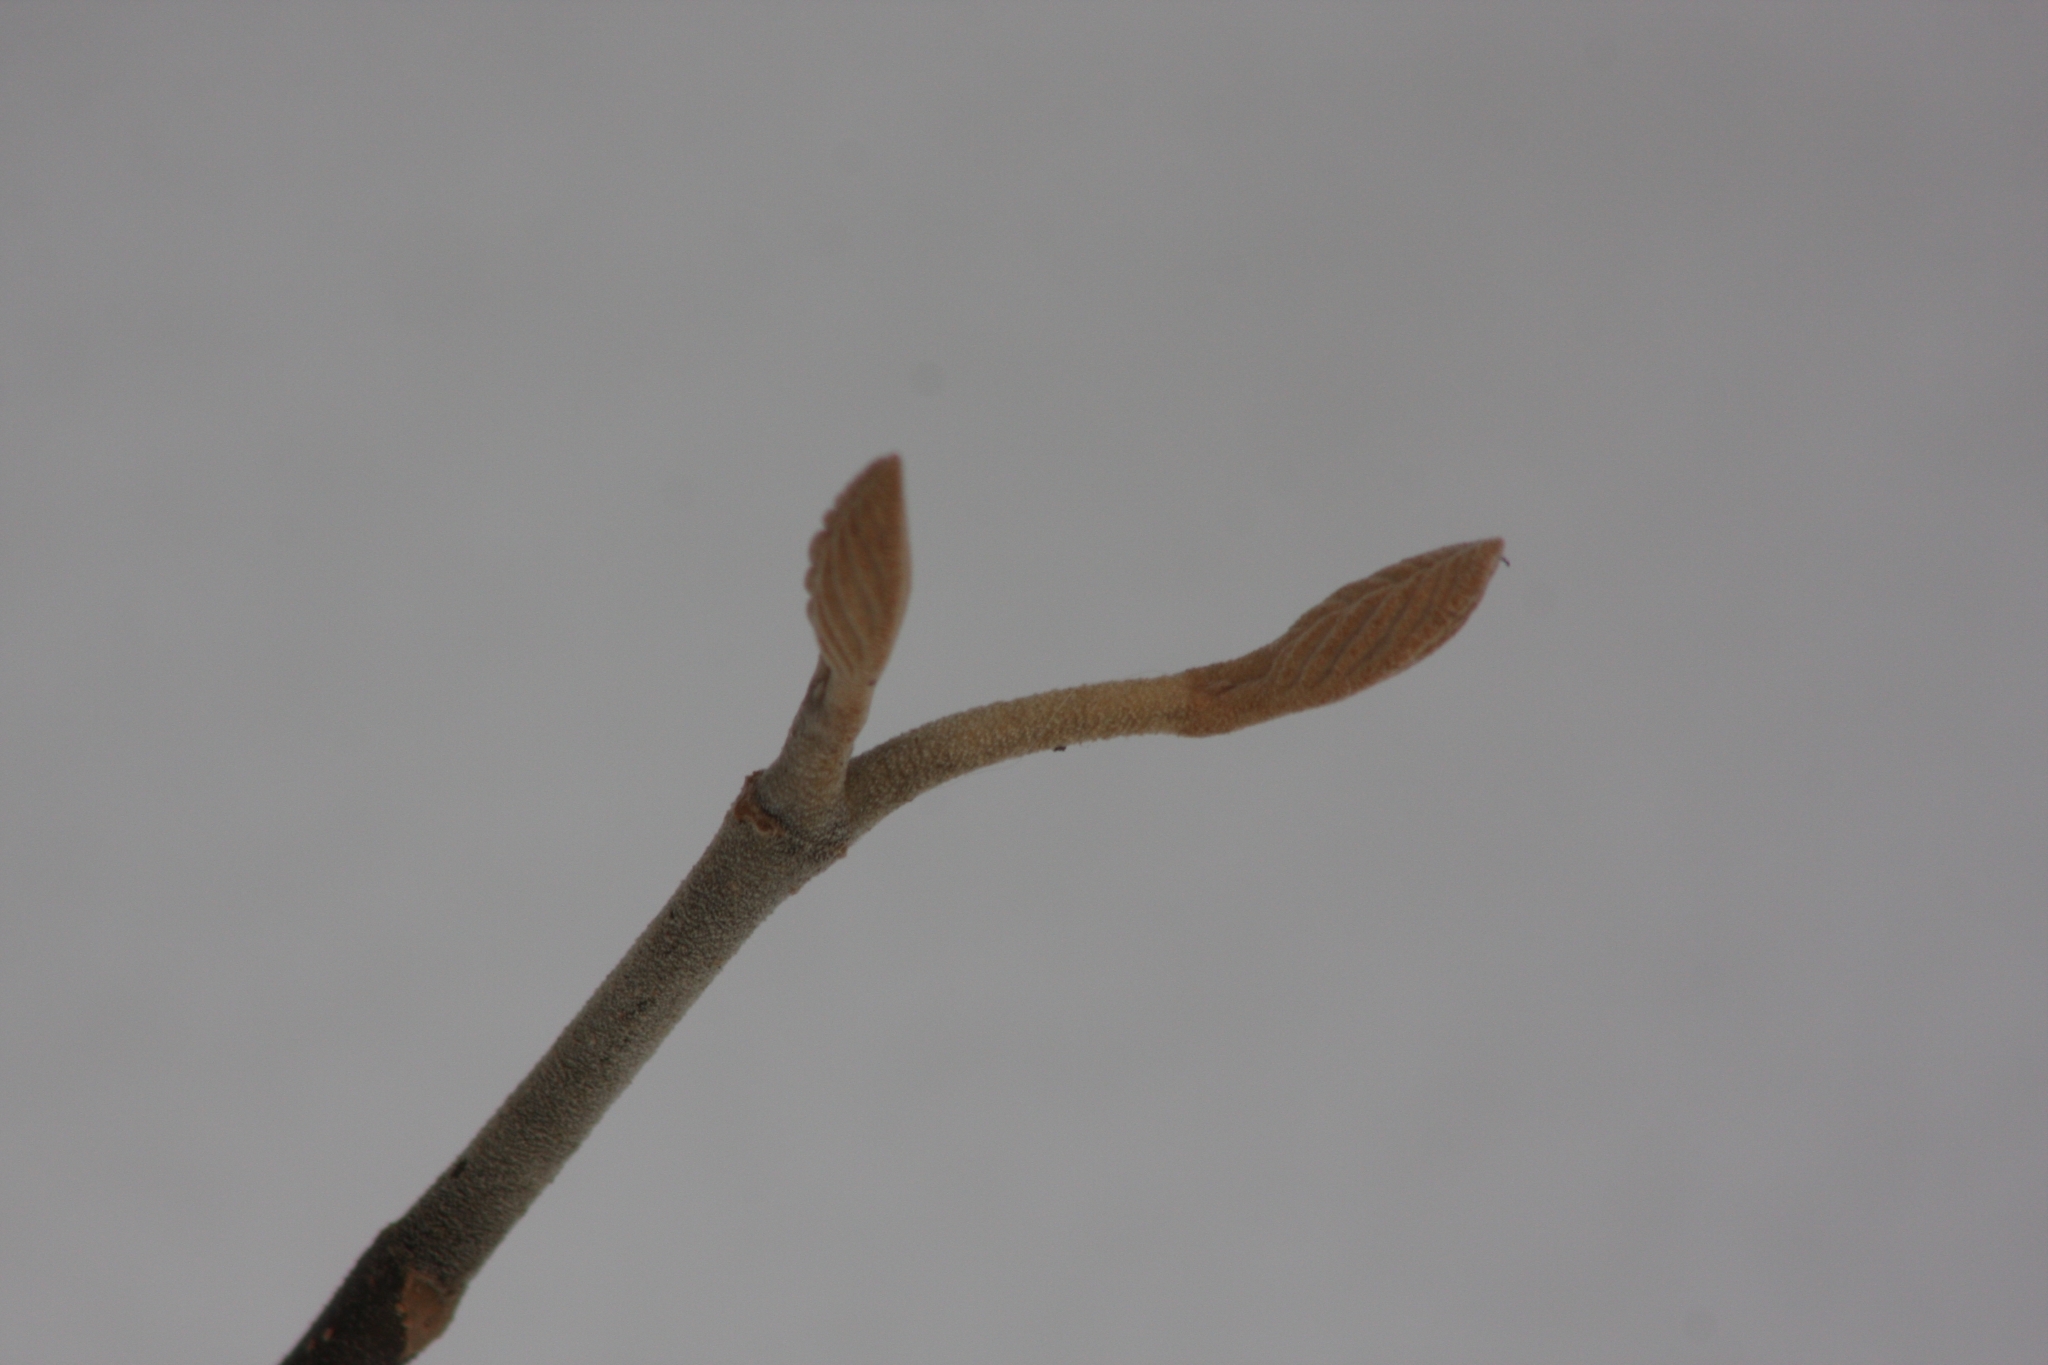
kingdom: Plantae
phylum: Tracheophyta
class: Magnoliopsida
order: Dipsacales
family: Viburnaceae
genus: Viburnum
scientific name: Viburnum lantanoides
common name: Hobblebush
